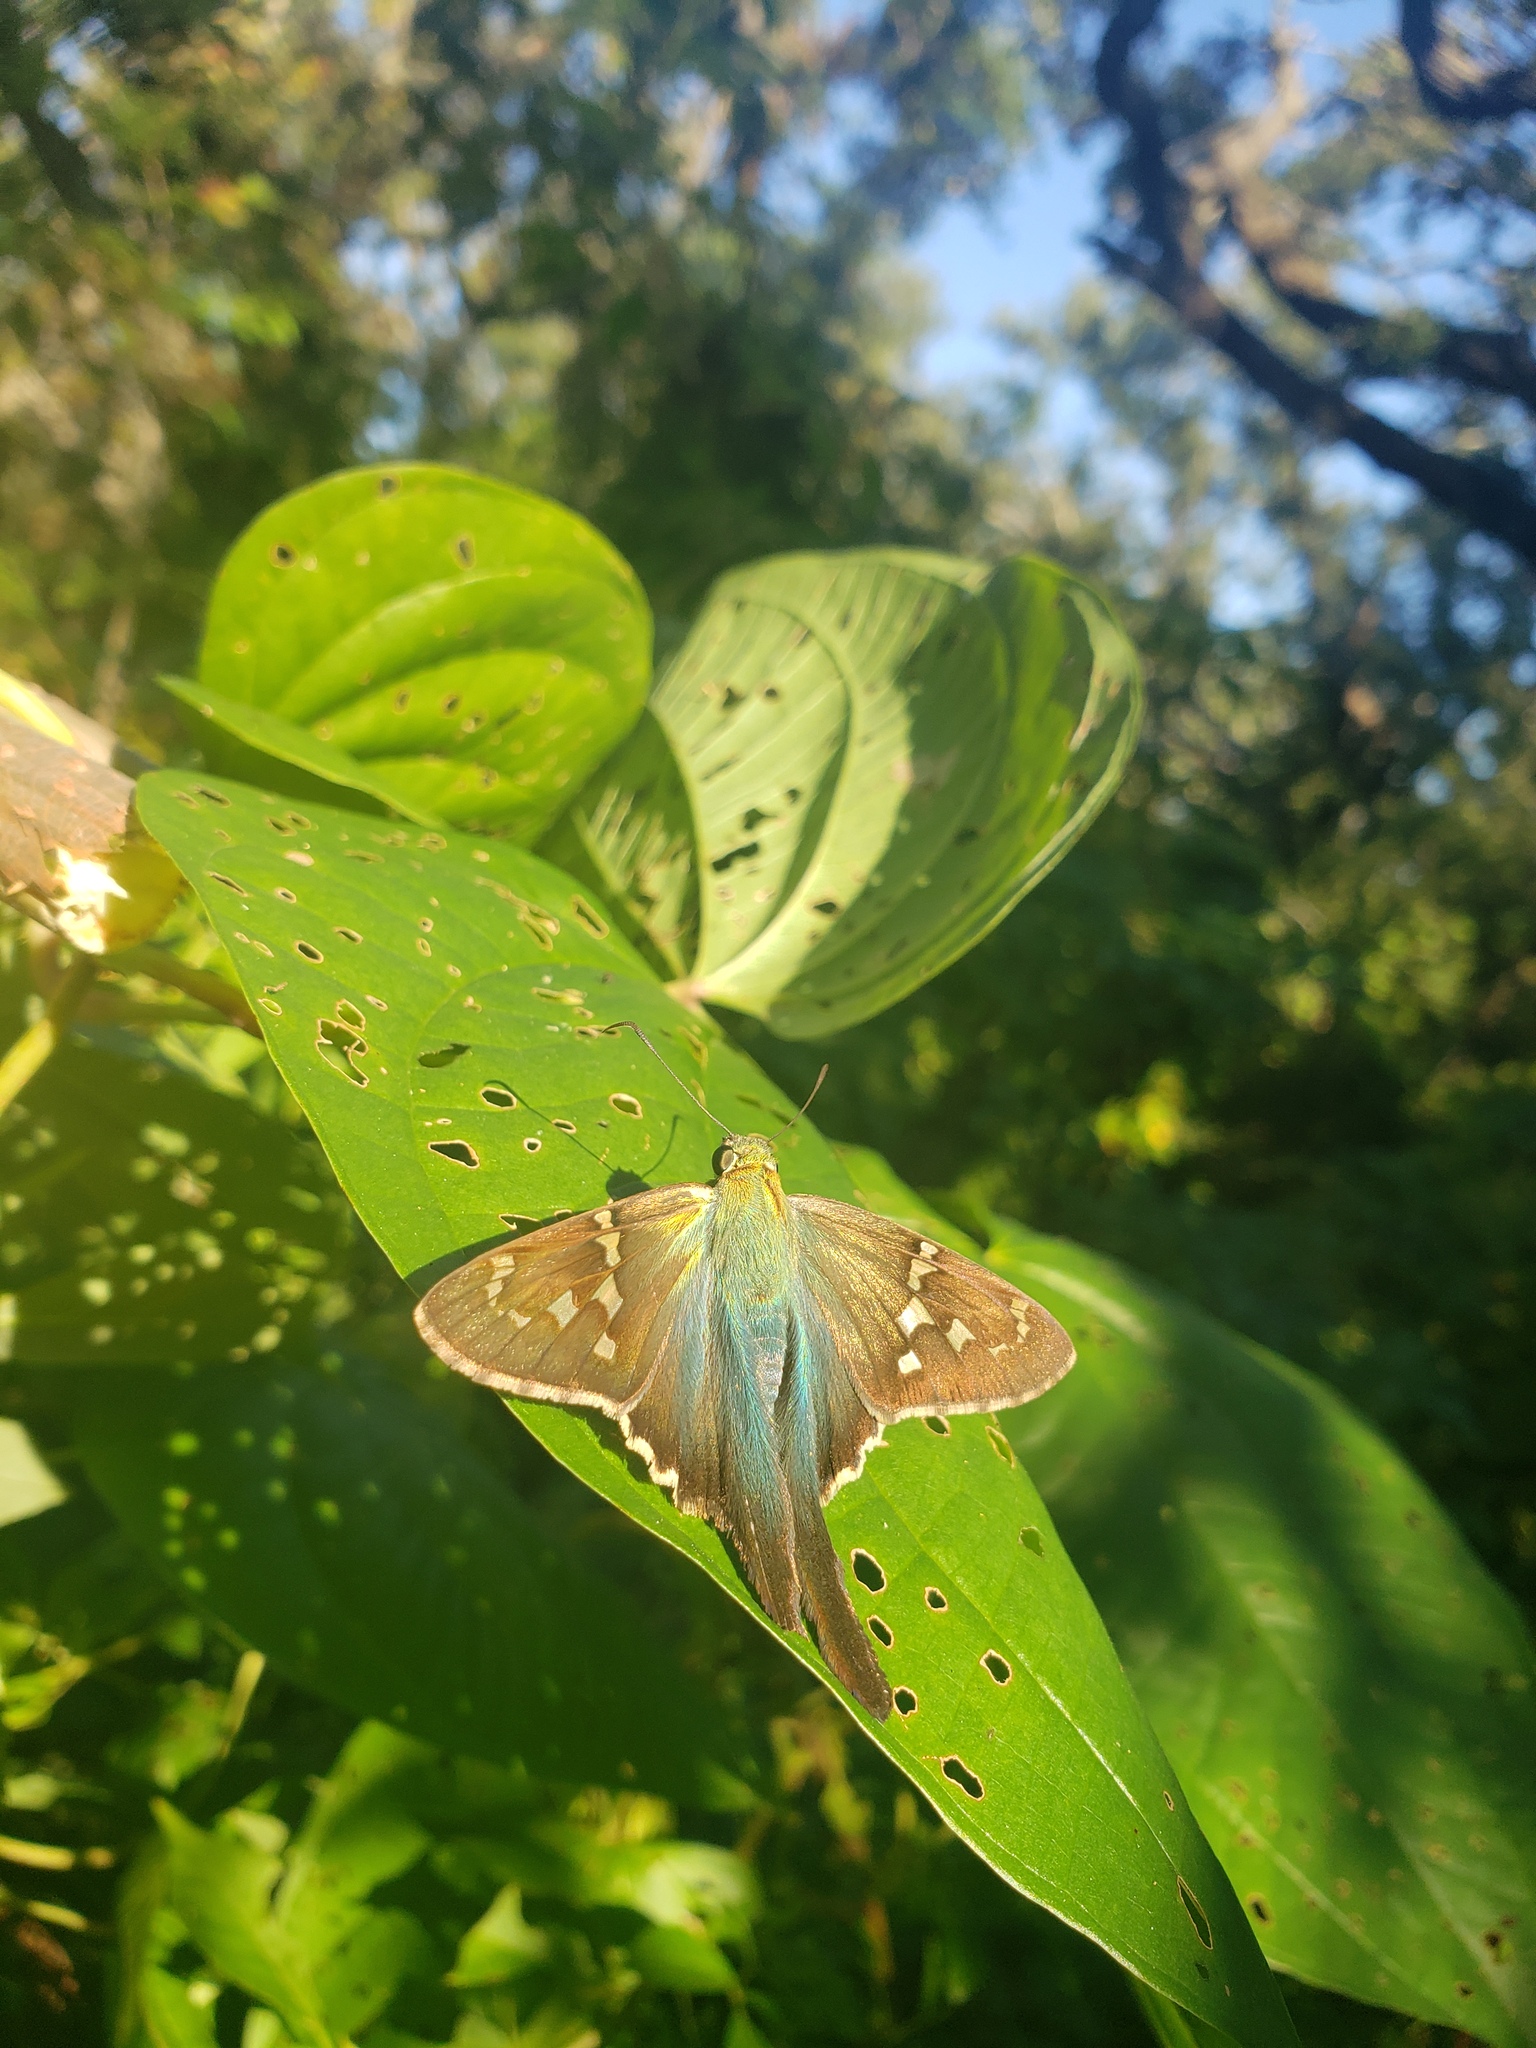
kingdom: Animalia
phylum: Arthropoda
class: Insecta
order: Lepidoptera
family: Hesperiidae
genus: Urbanus
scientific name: Urbanus proteus
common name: Long-tailed skipper
